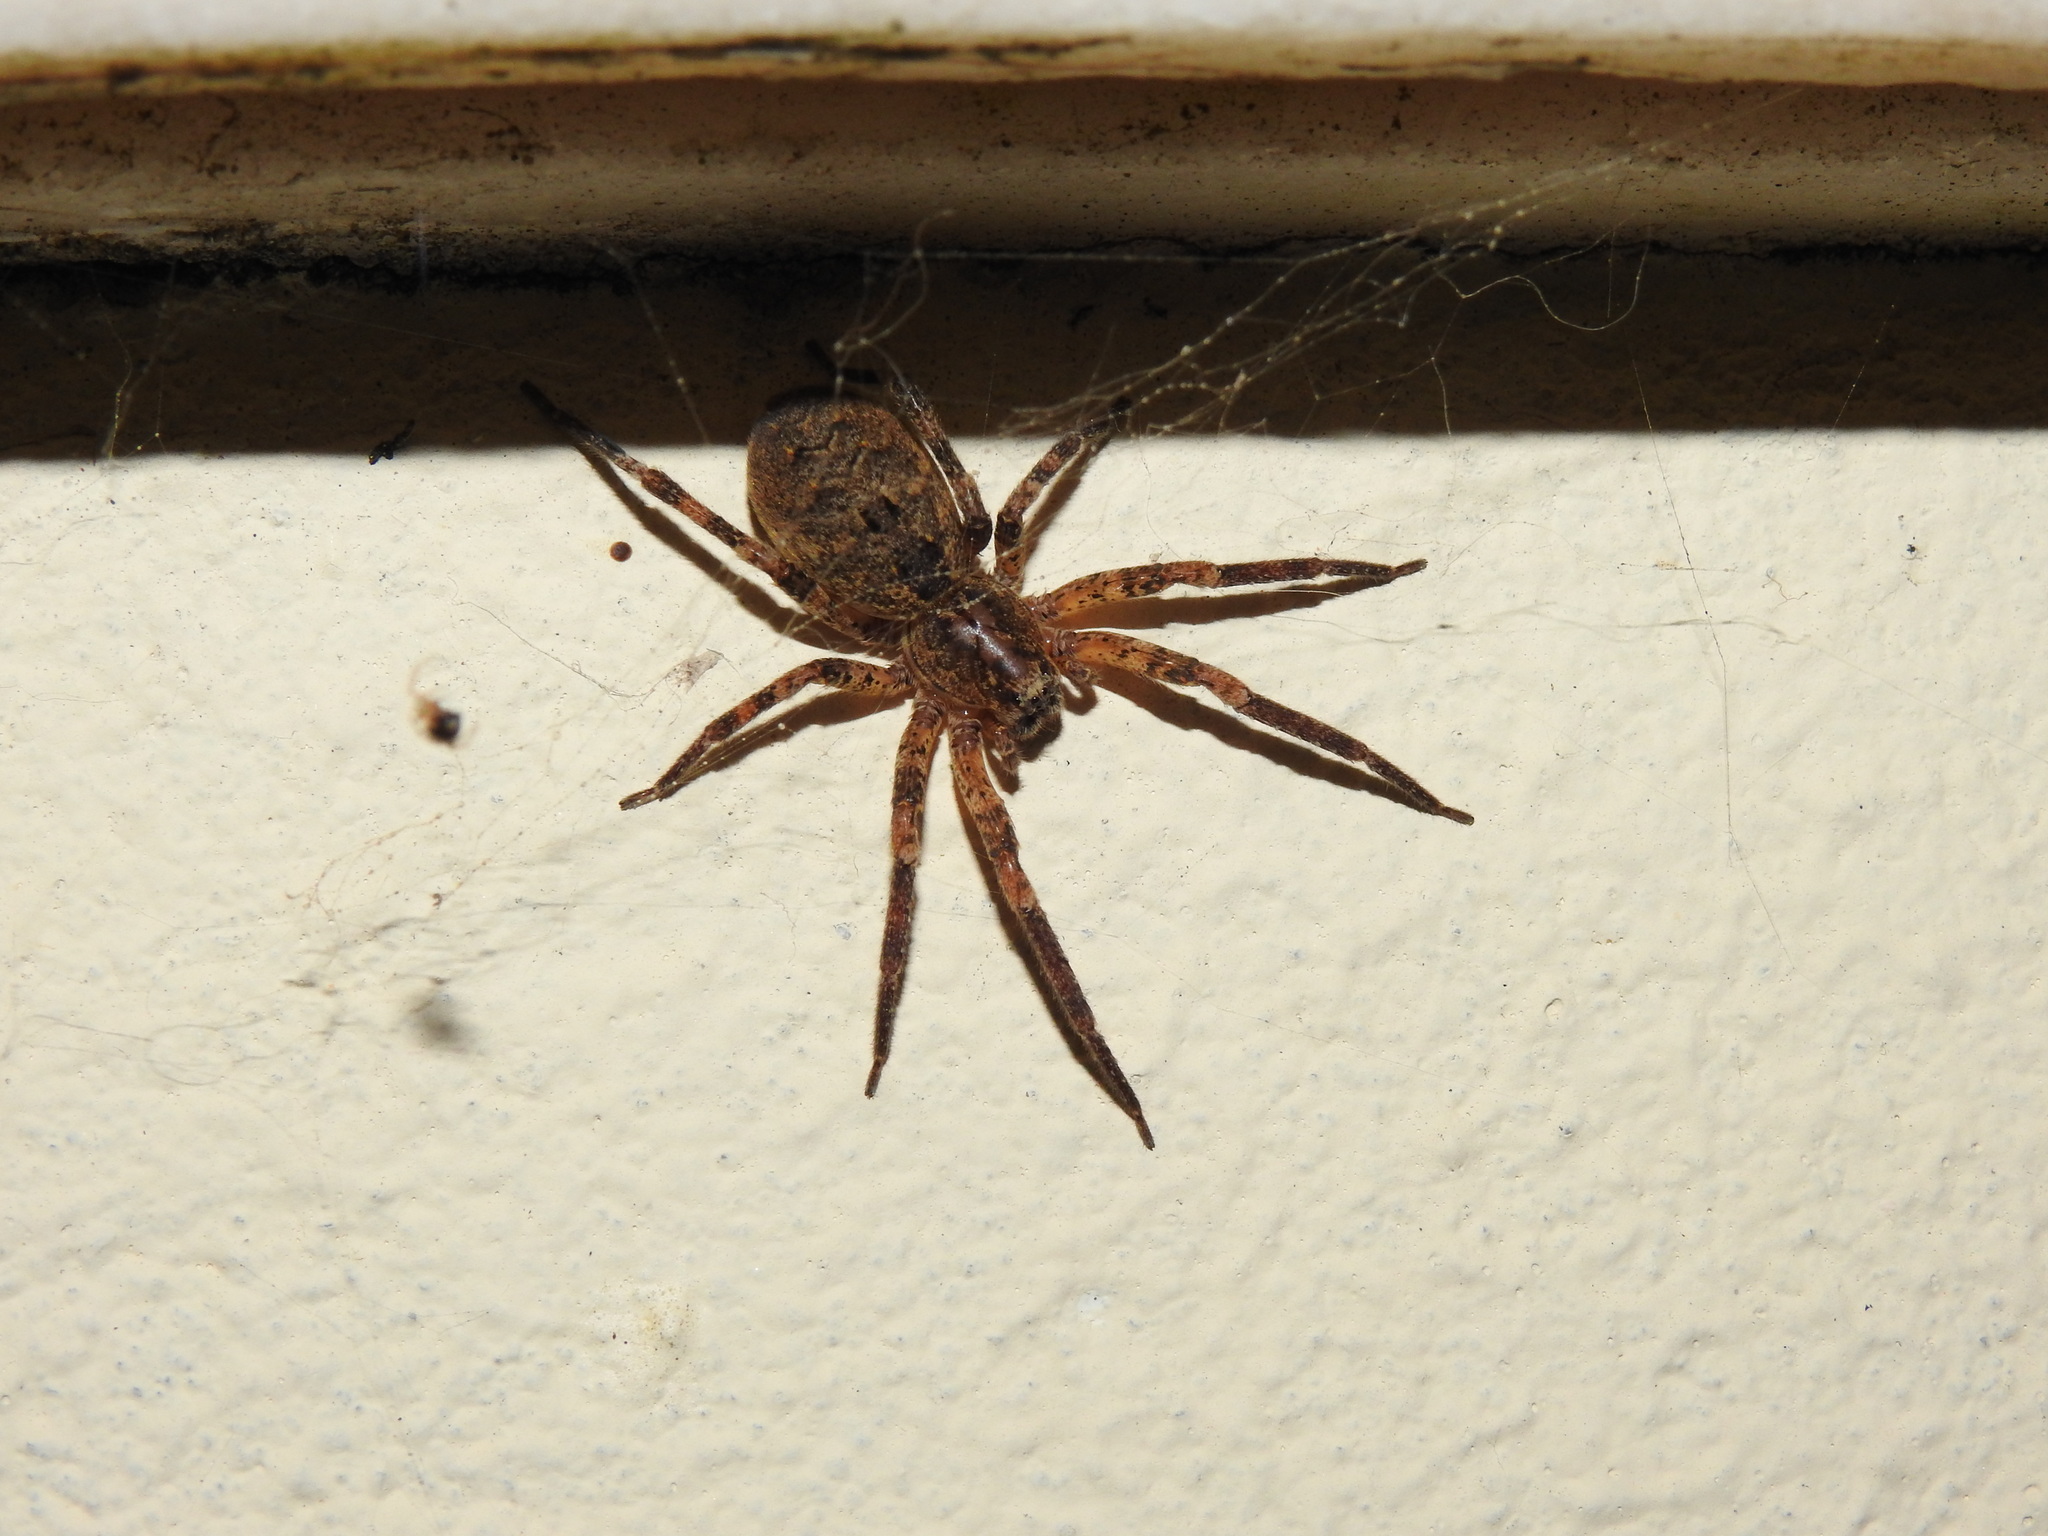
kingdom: Animalia
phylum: Arthropoda
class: Arachnida
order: Araneae
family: Zoropsidae
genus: Zoropsis
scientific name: Zoropsis spinimana
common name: Zoropsid spider
